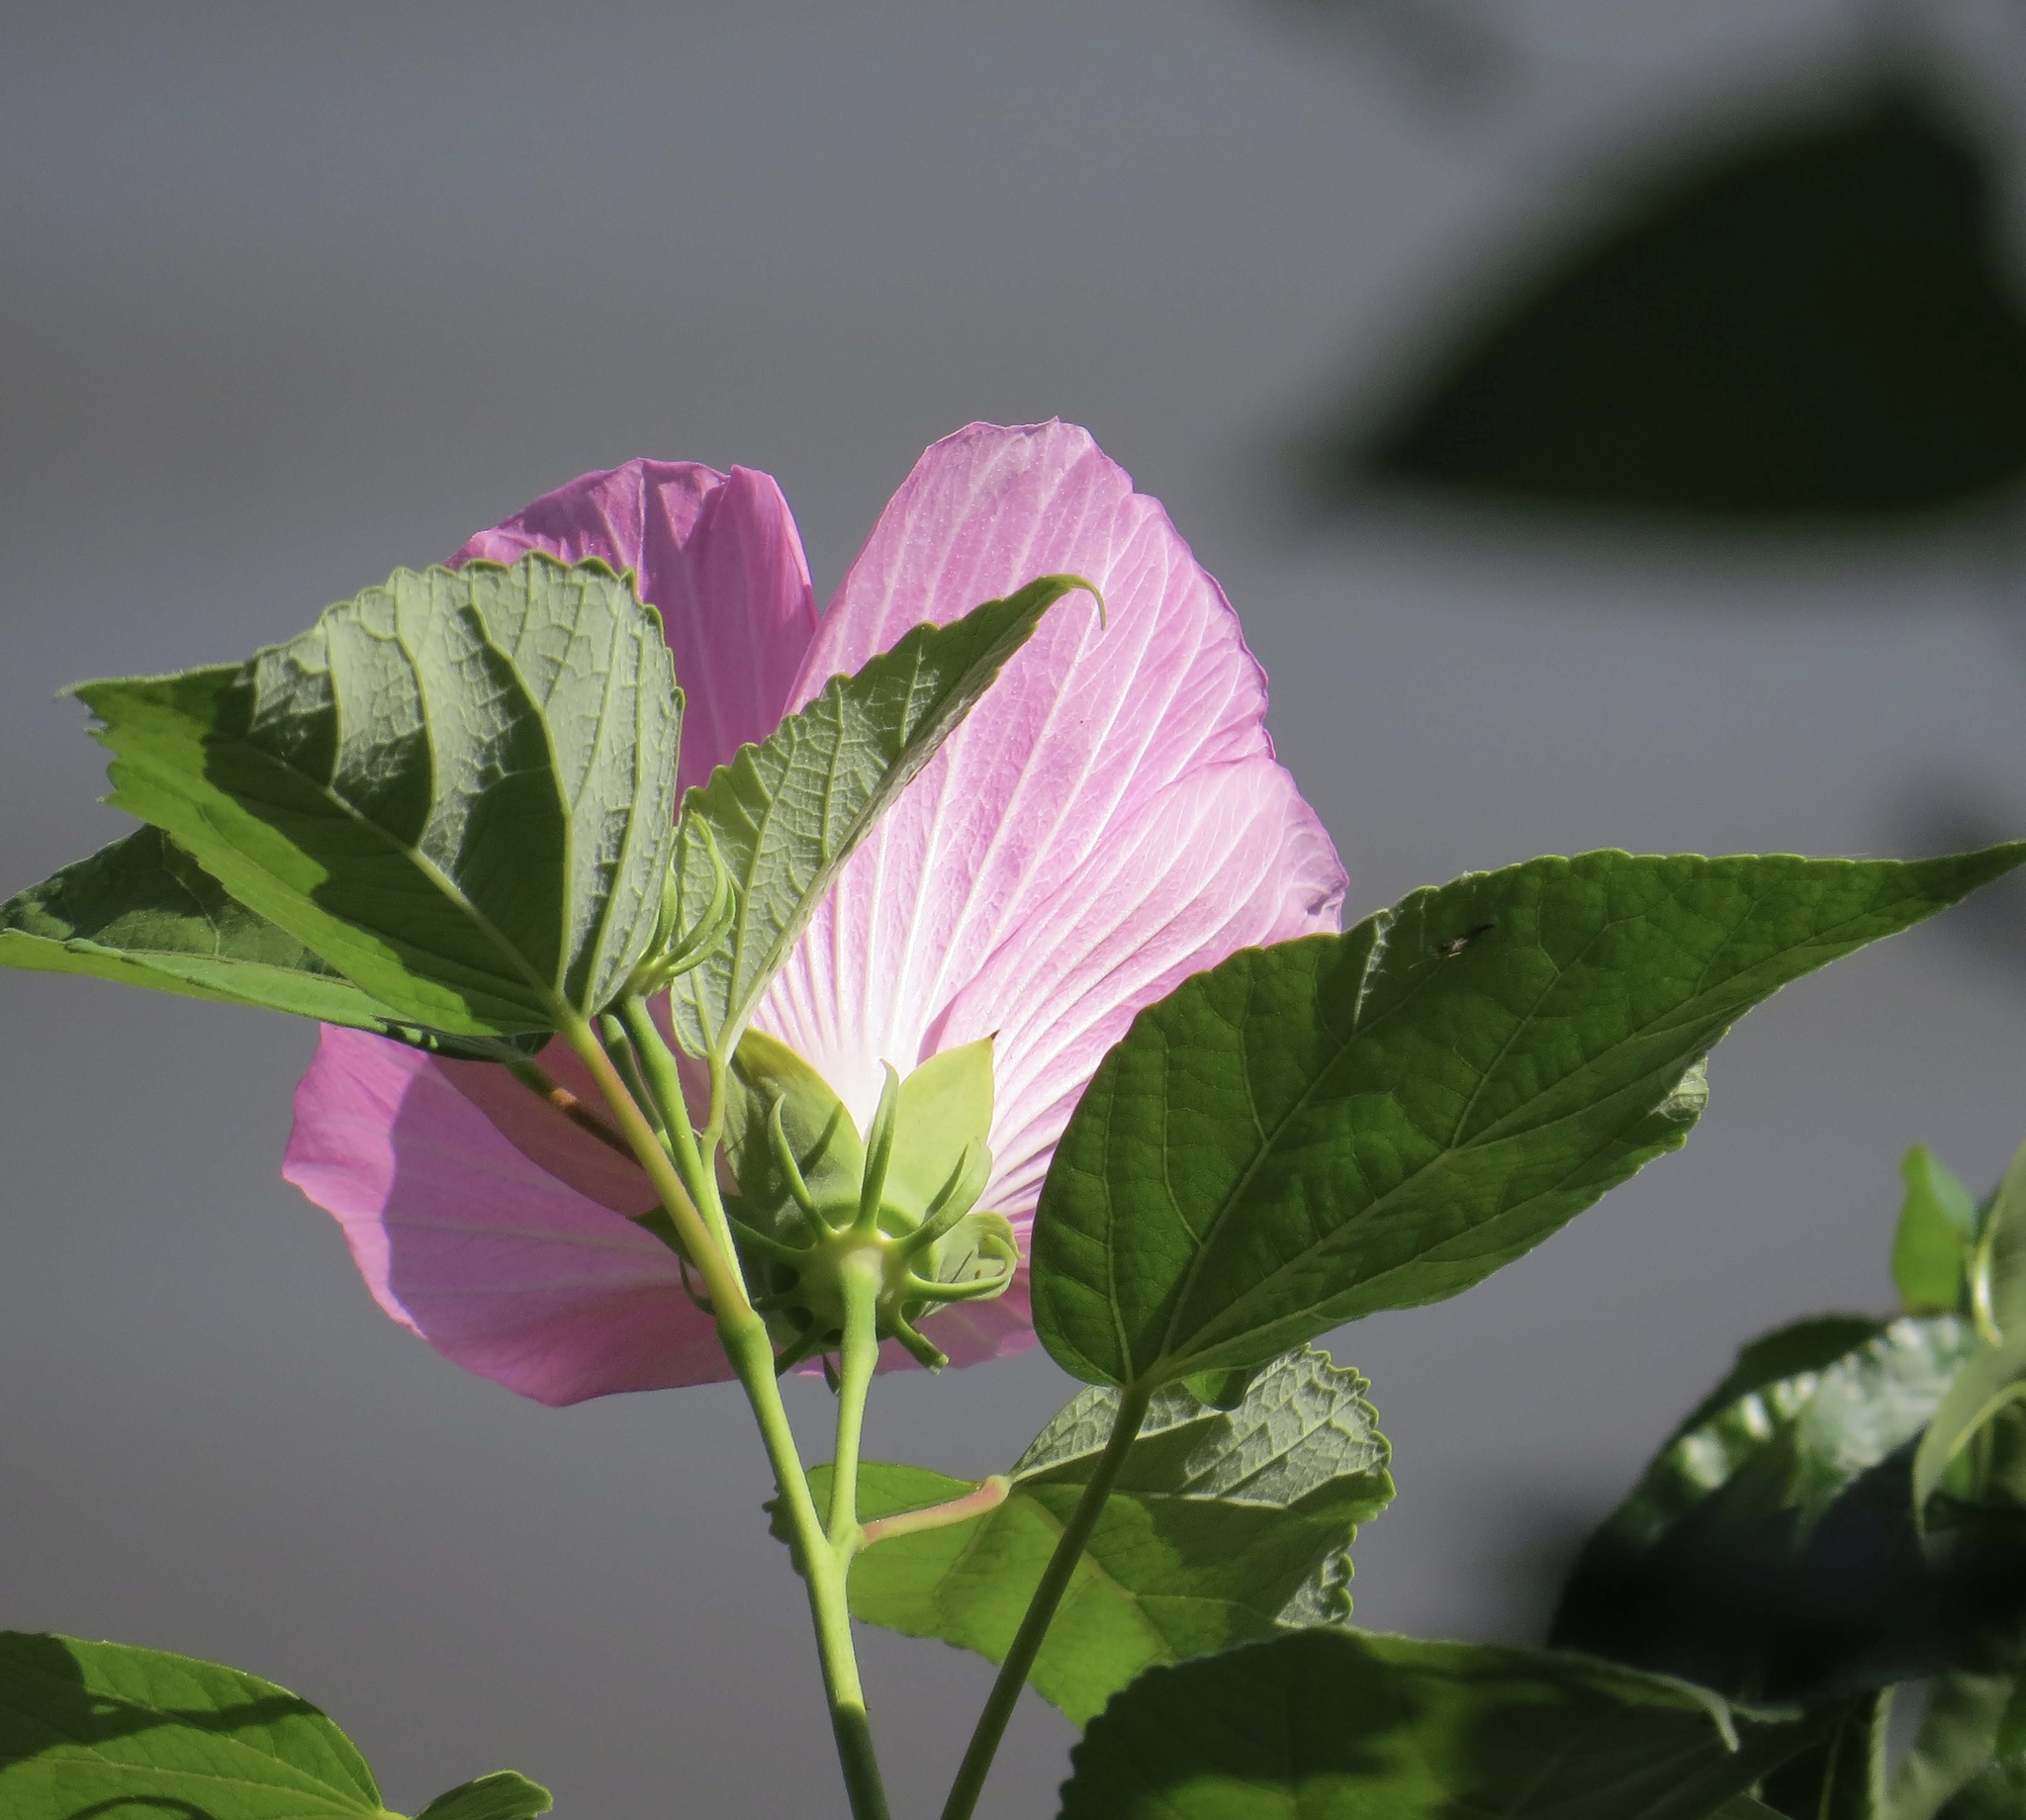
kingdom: Plantae
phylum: Tracheophyta
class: Magnoliopsida
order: Malvales
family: Malvaceae
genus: Hibiscus
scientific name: Hibiscus moscheutos
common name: Common rose-mallow
